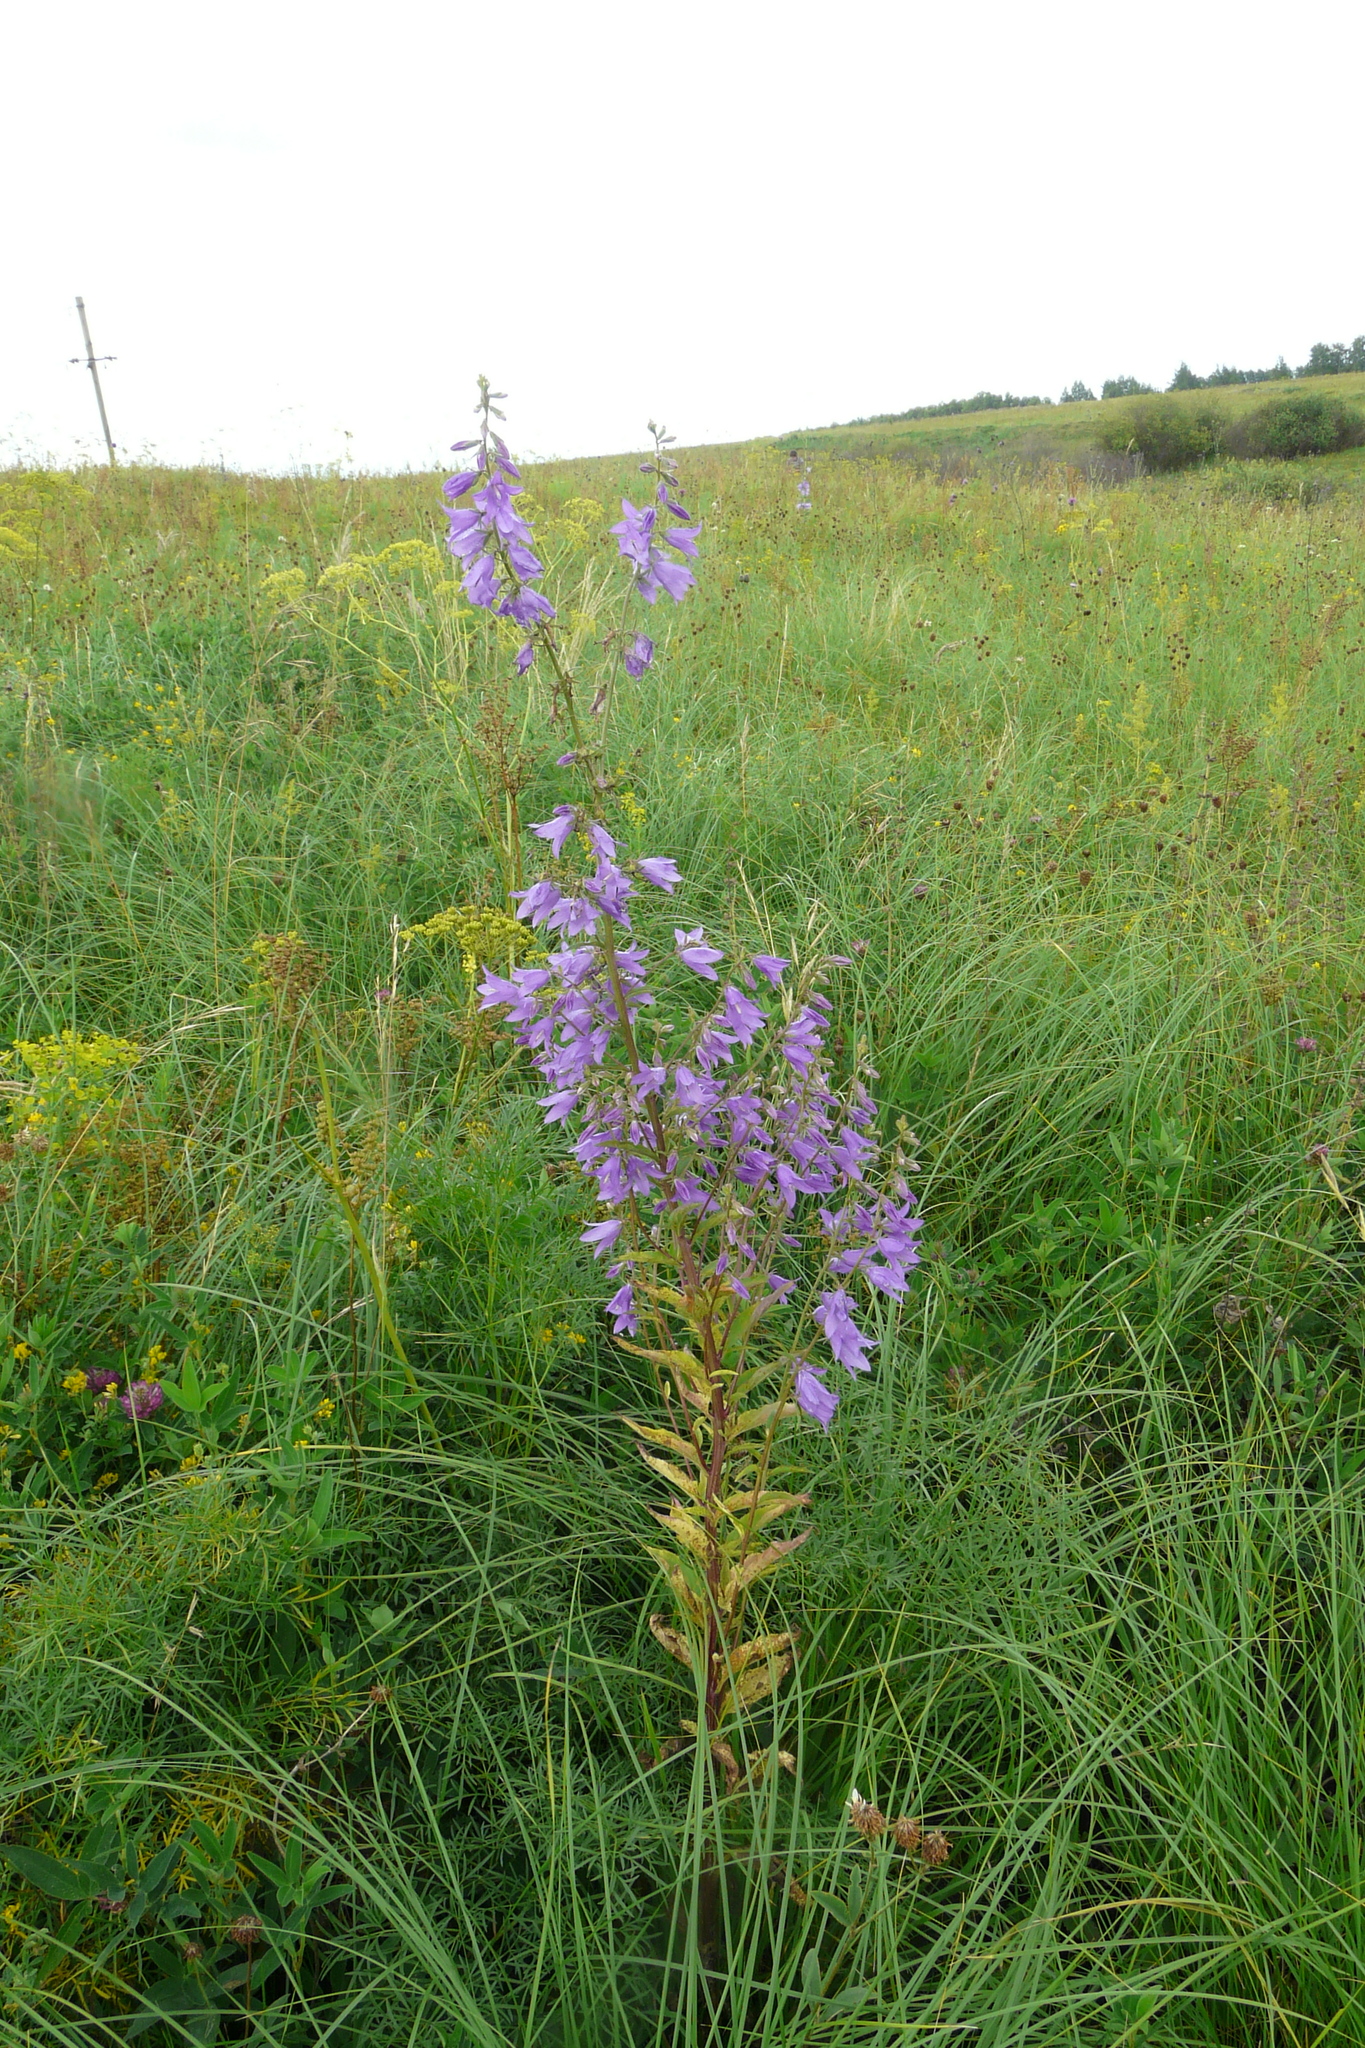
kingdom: Plantae
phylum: Tracheophyta
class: Magnoliopsida
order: Asterales
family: Campanulaceae
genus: Campanula
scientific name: Campanula rapunculoides
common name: Creeping bellflower
